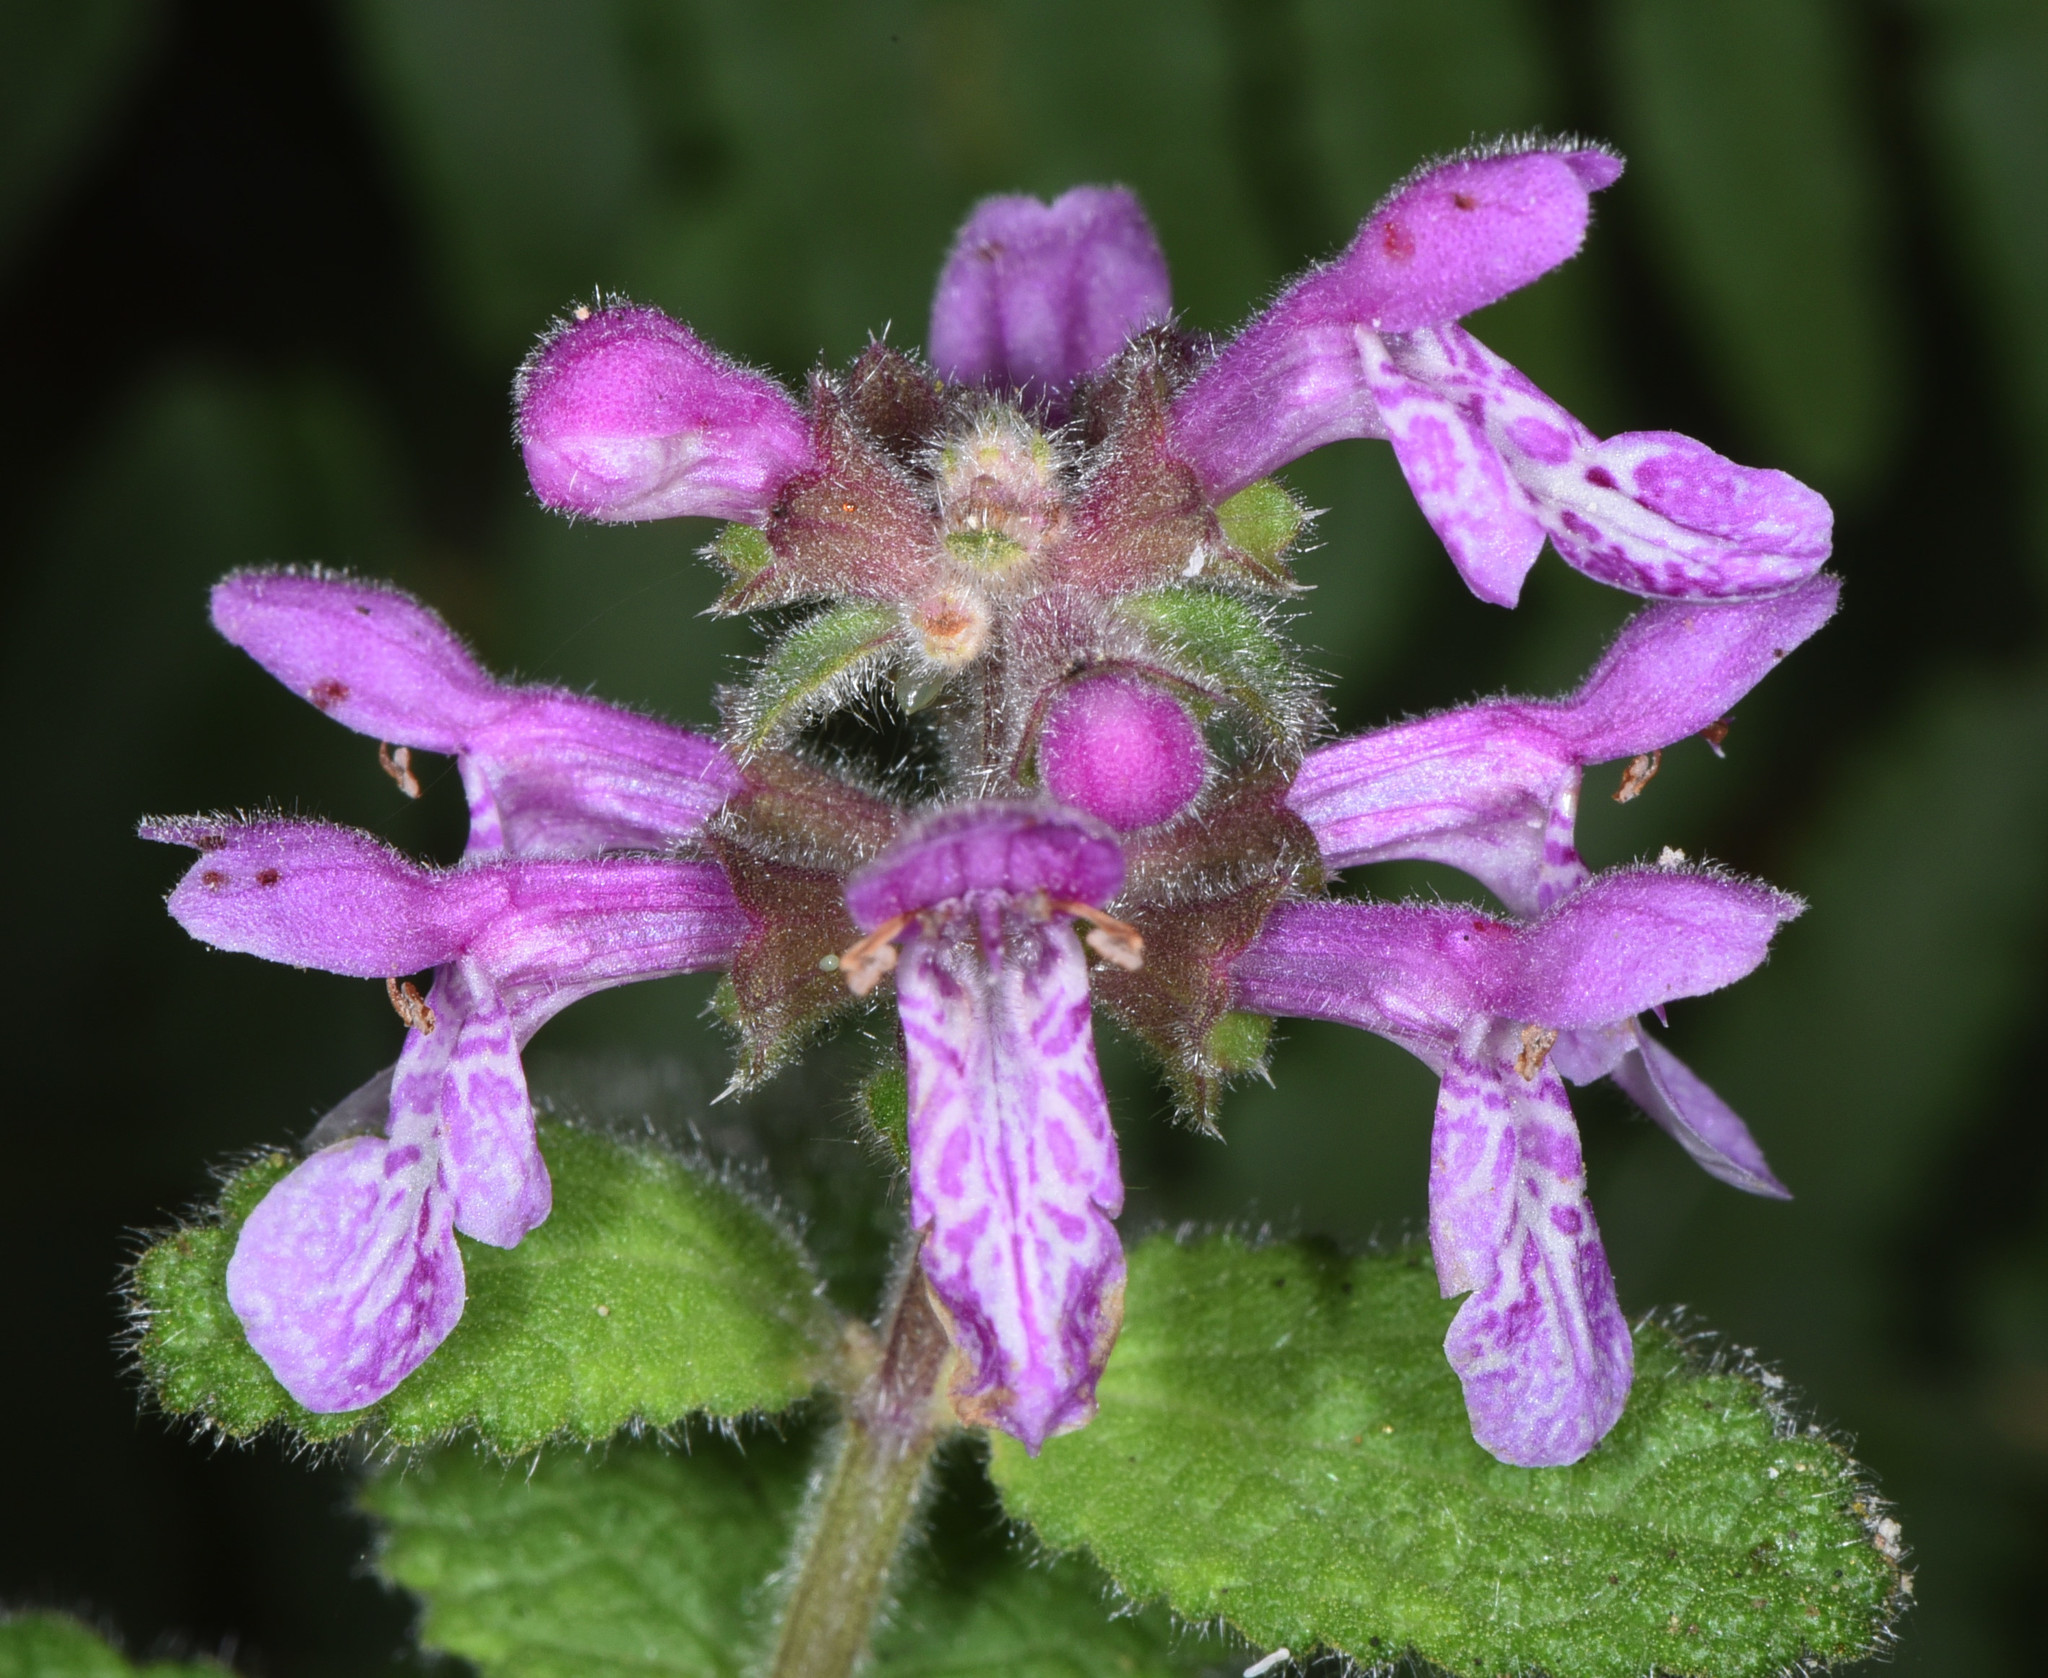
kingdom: Plantae
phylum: Tracheophyta
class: Magnoliopsida
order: Lamiales
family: Lamiaceae
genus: Stachys
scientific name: Stachys bullata
